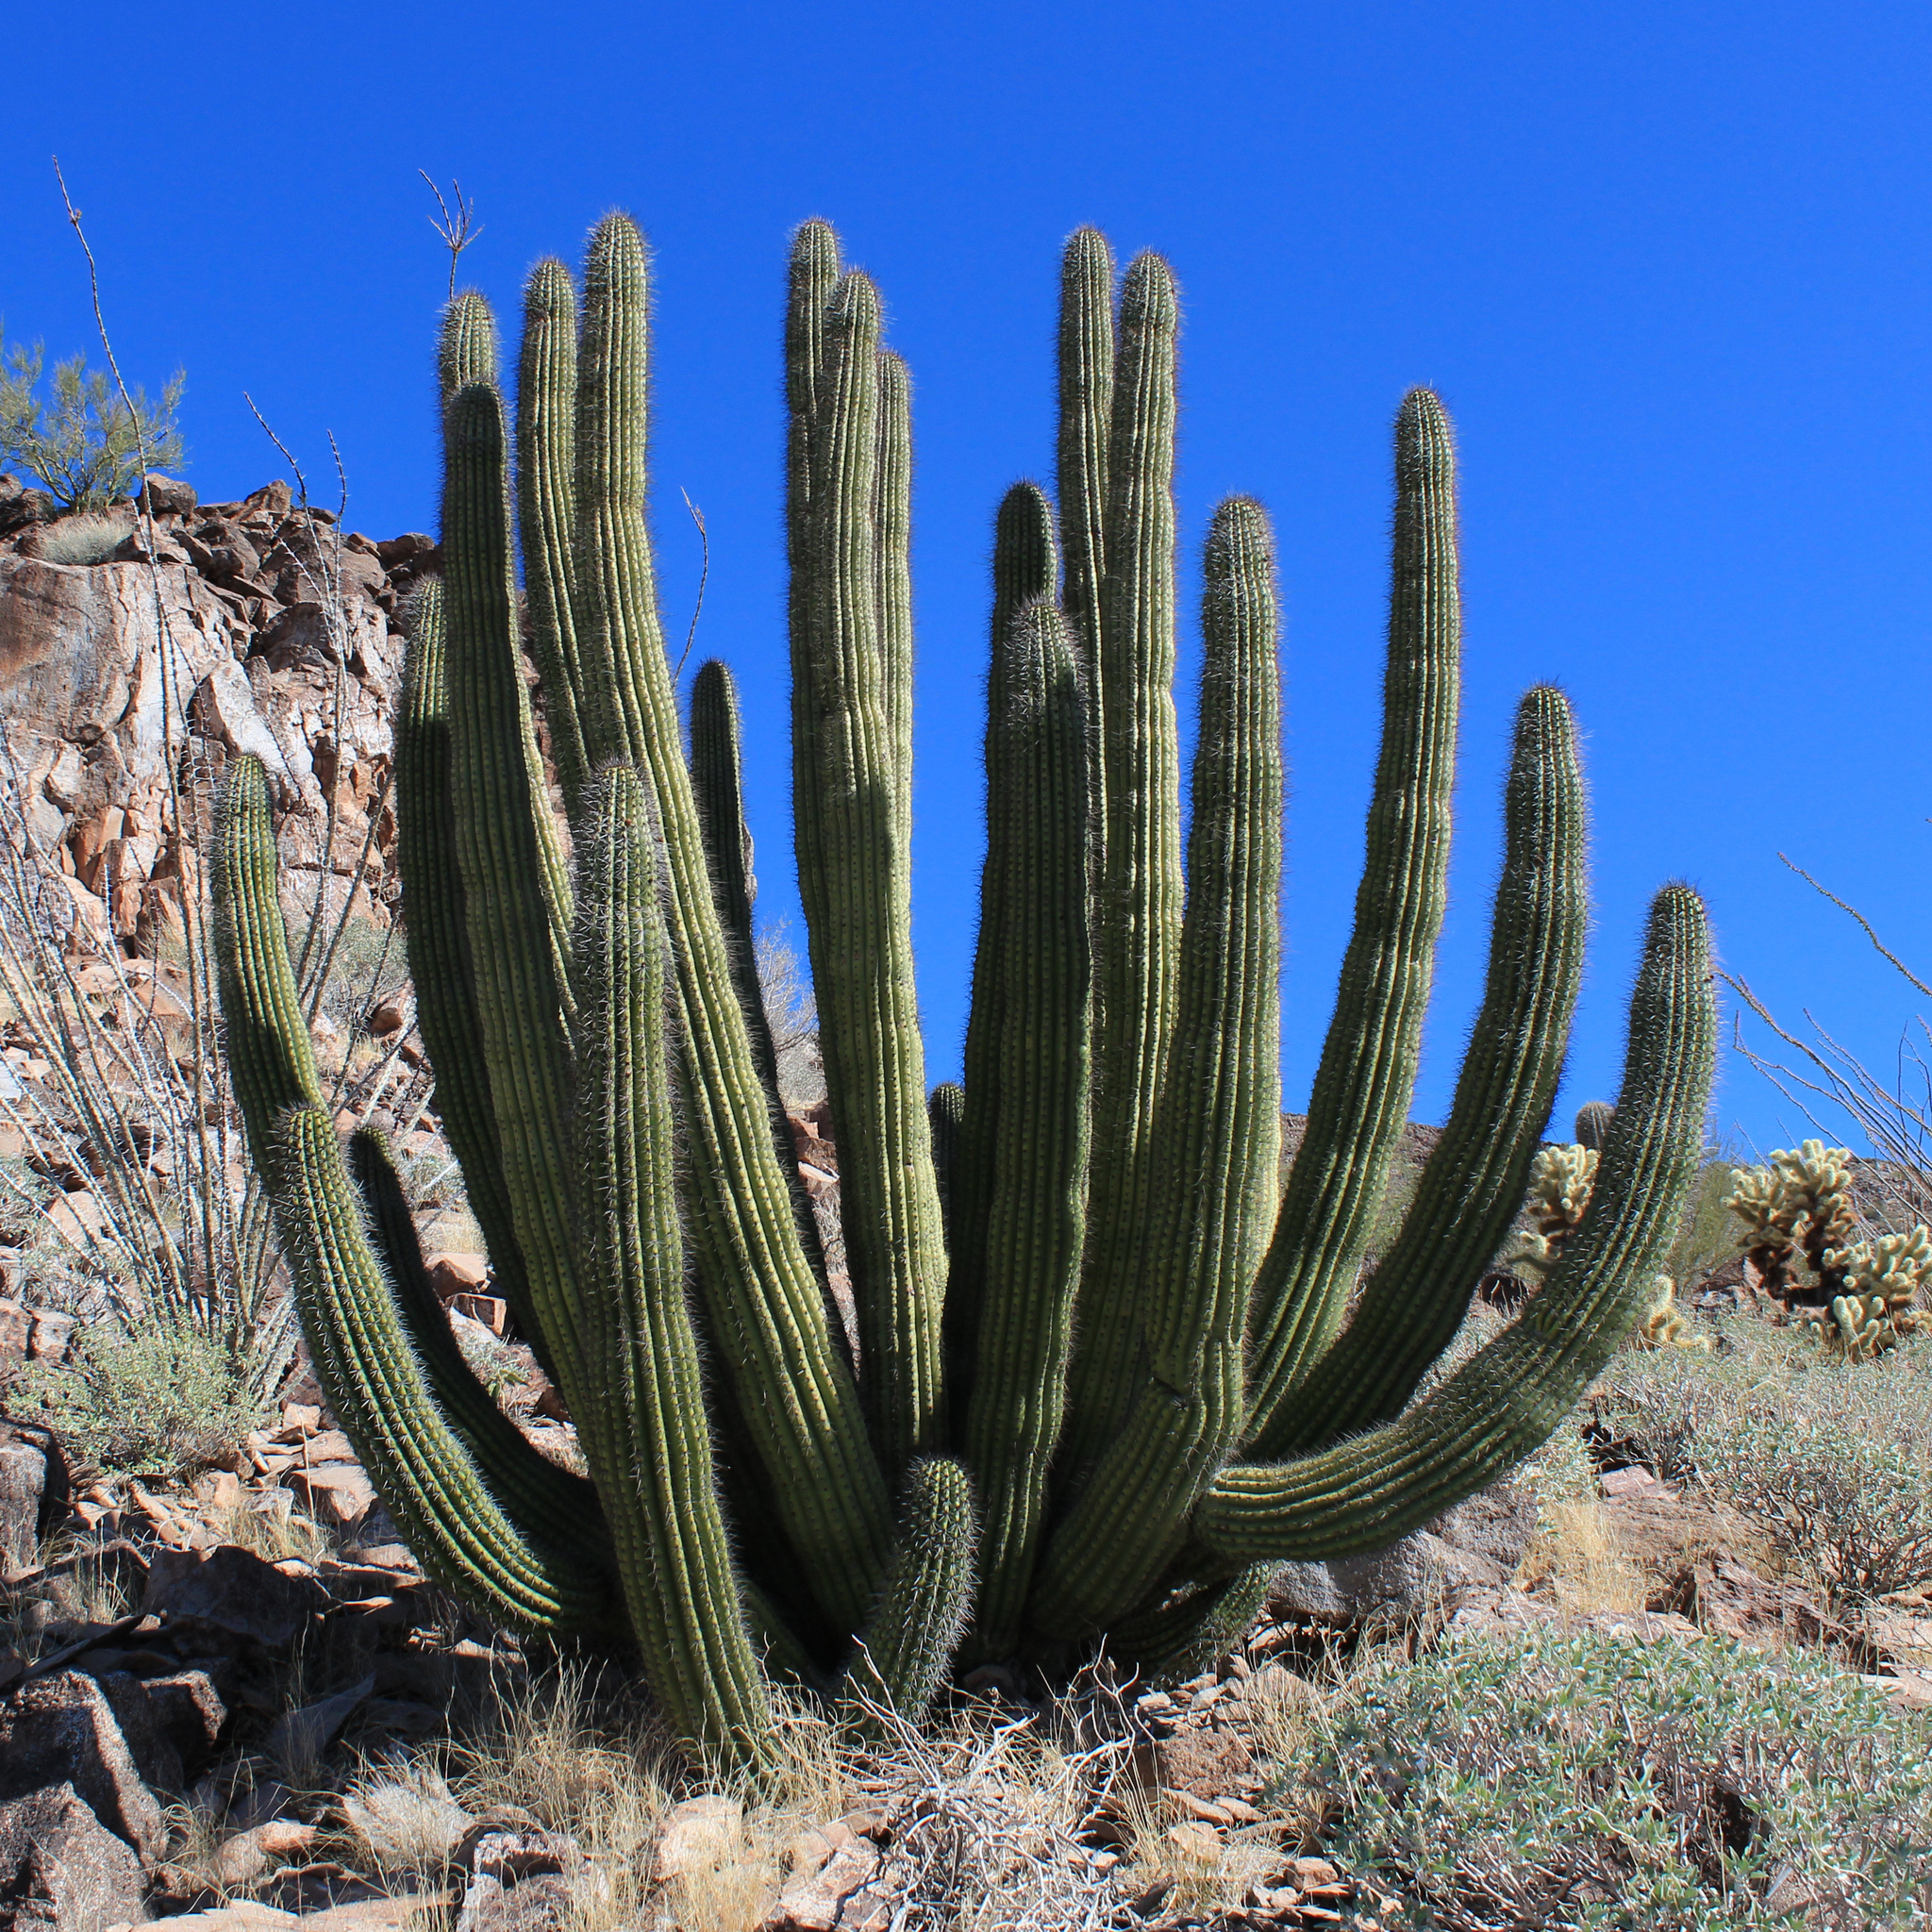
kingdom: Plantae
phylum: Tracheophyta
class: Magnoliopsida
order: Caryophyllales
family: Cactaceae
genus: Stenocereus
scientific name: Stenocereus thurberi
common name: Organ pipe cactus
